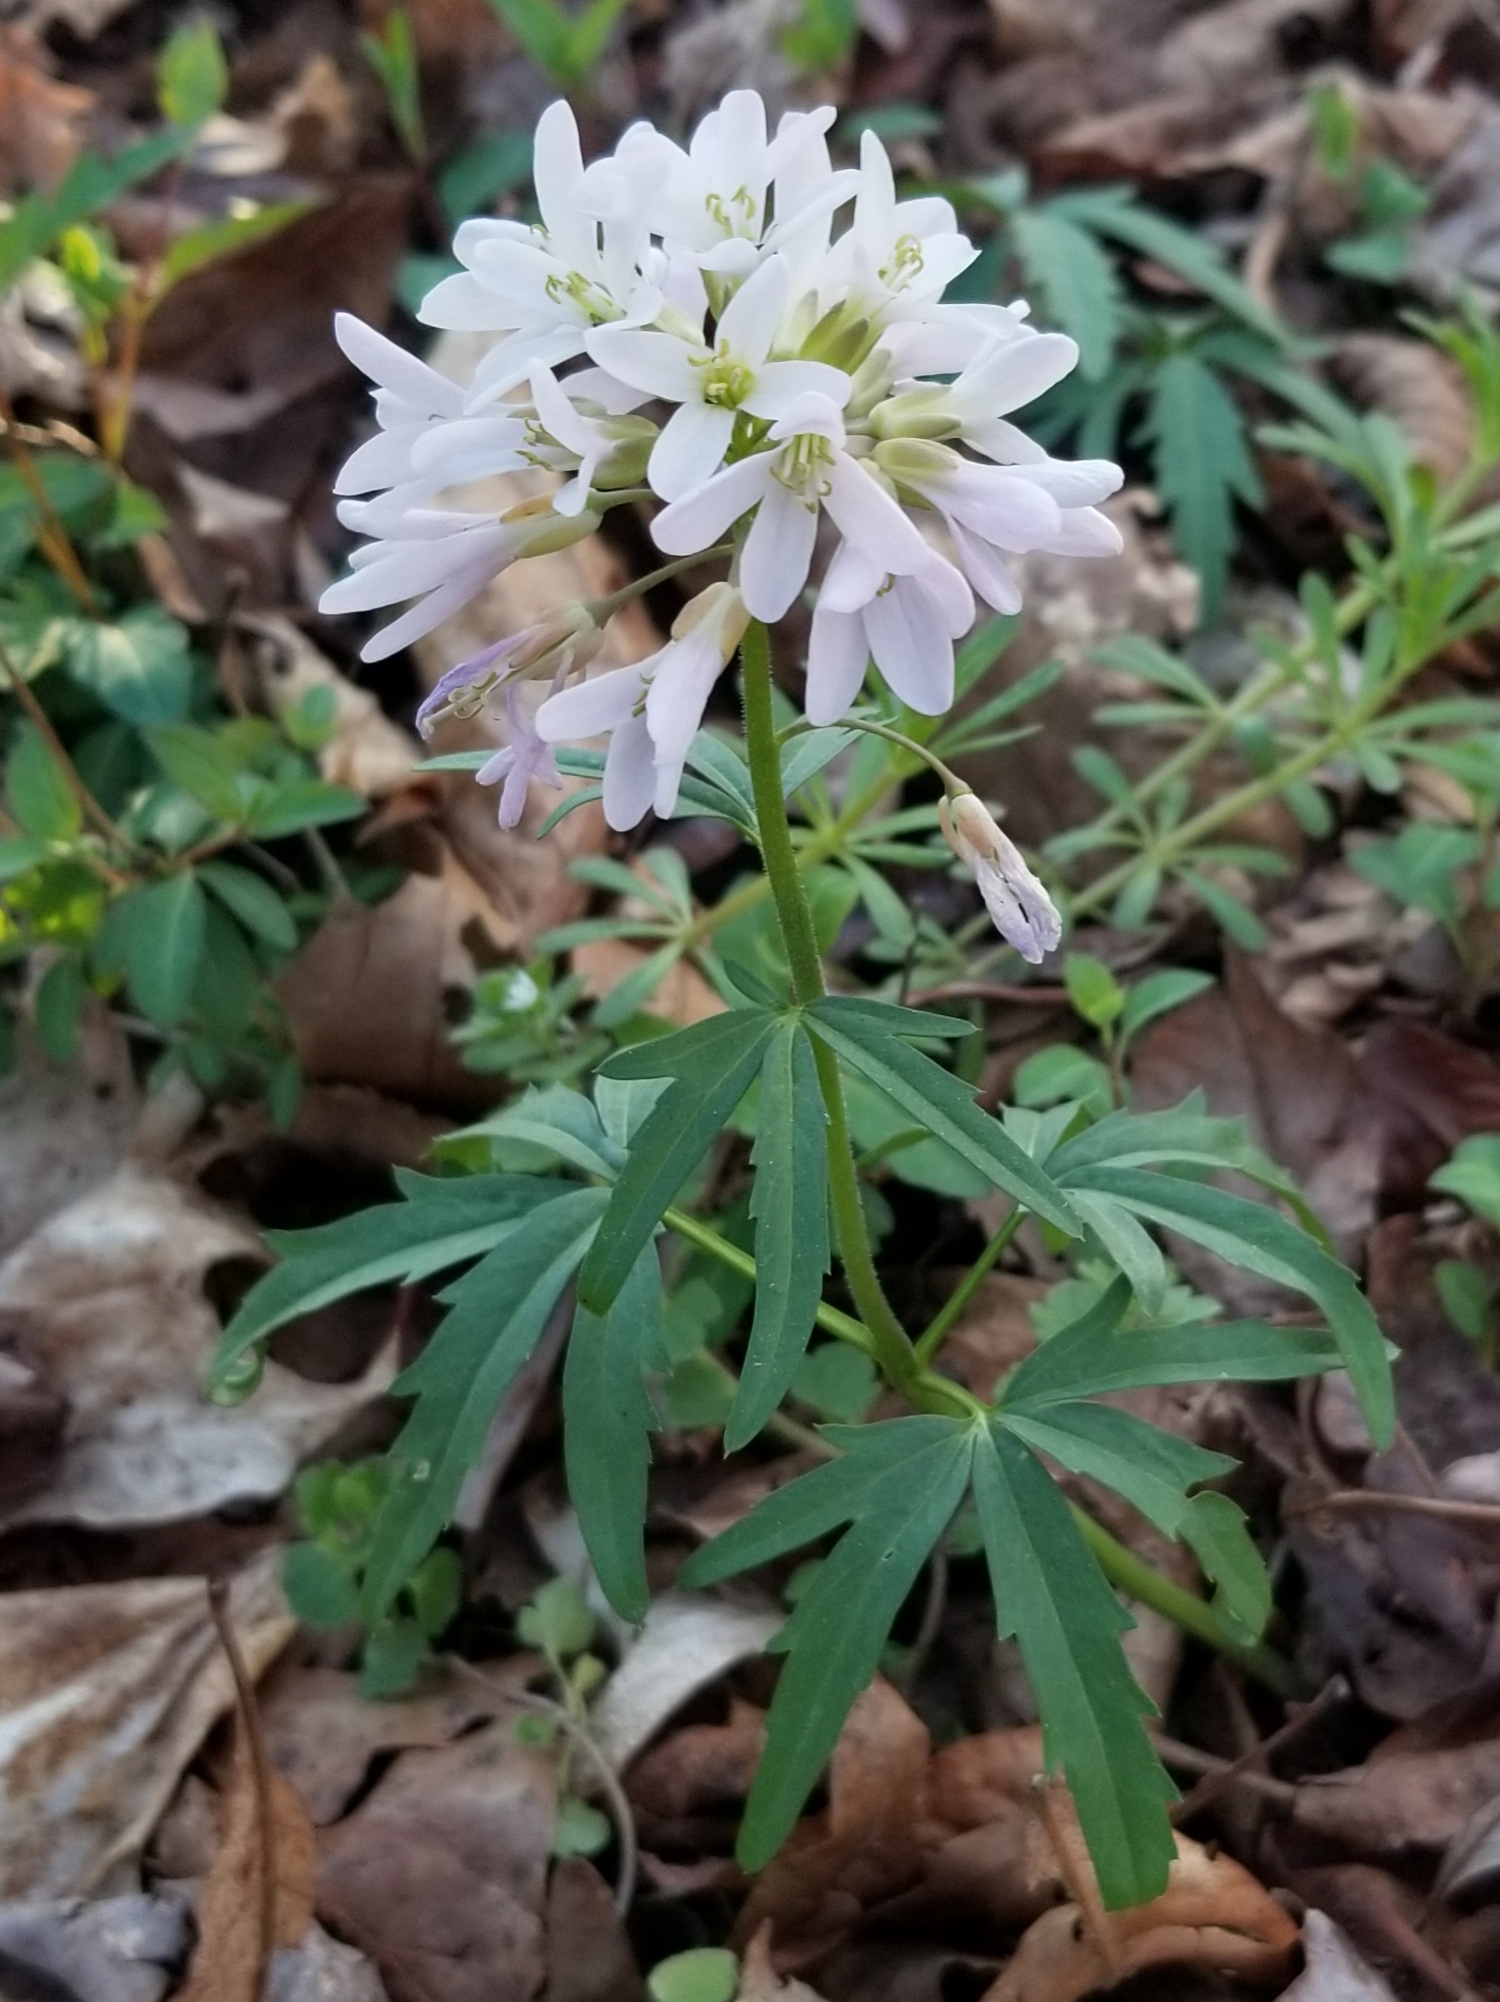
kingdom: Plantae
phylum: Tracheophyta
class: Magnoliopsida
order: Brassicales
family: Brassicaceae
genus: Cardamine
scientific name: Cardamine concatenata
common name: Cut-leaf toothcup
